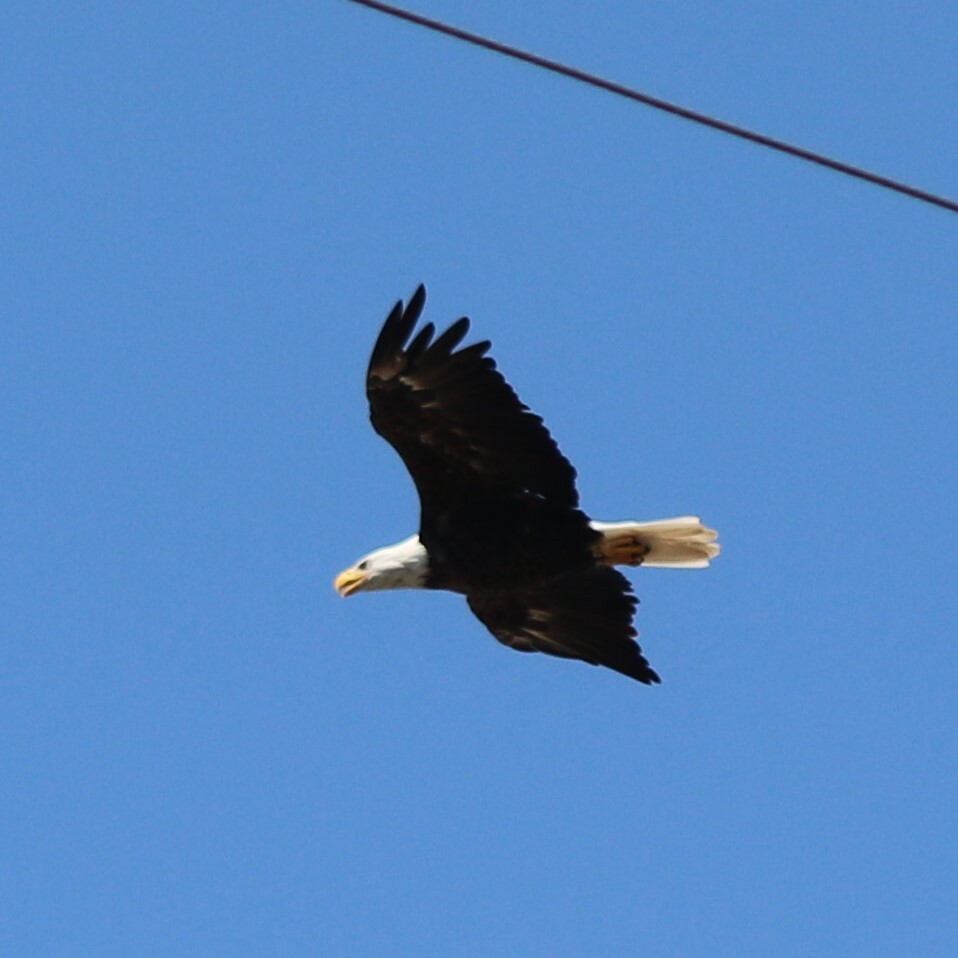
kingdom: Animalia
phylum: Chordata
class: Aves
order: Accipitriformes
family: Accipitridae
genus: Haliaeetus
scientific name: Haliaeetus leucocephalus
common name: Bald eagle
